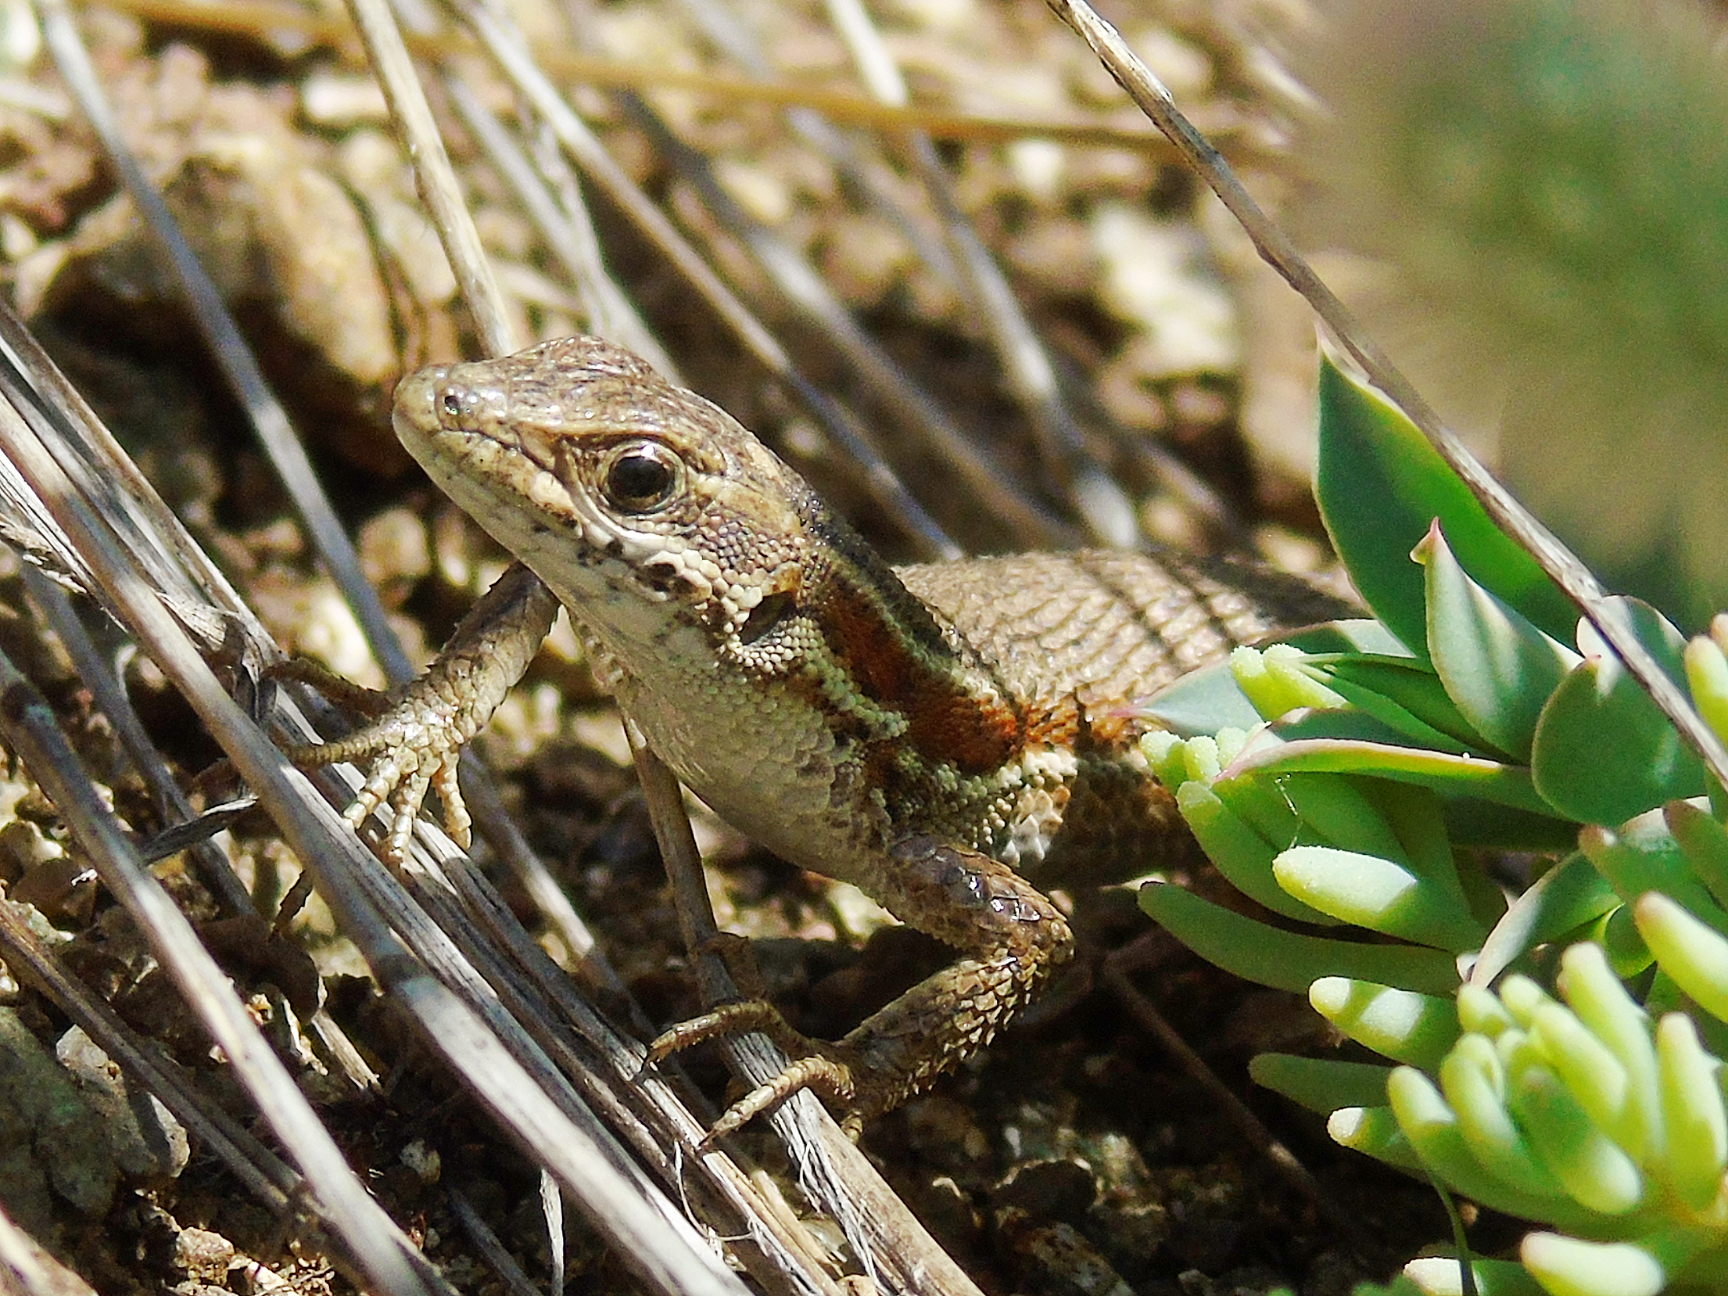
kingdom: Animalia
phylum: Chordata
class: Squamata
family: Lacertidae
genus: Ophisops
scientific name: Ophisops elegans
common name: Snake-eyed lizard
